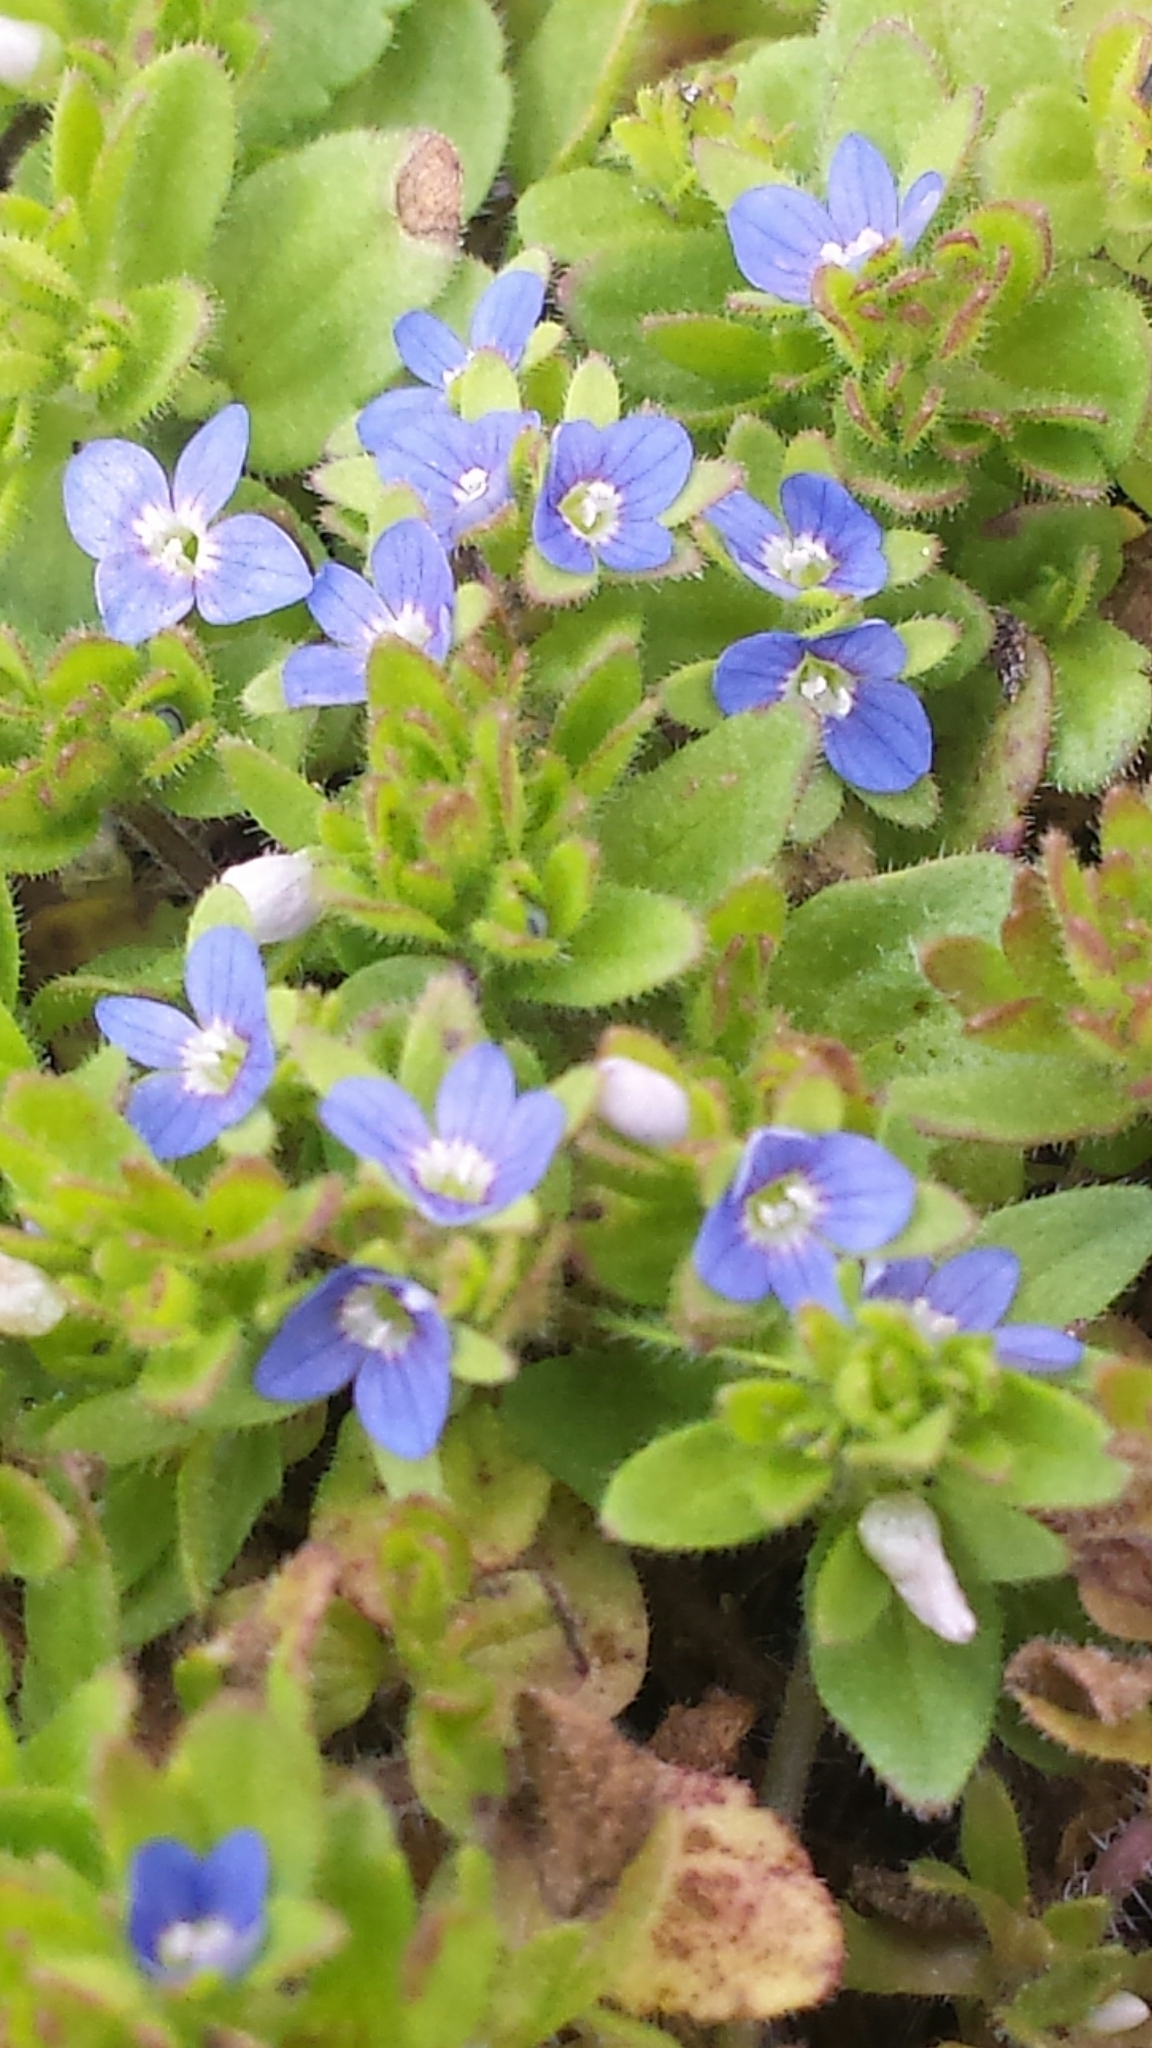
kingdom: Plantae
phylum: Tracheophyta
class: Magnoliopsida
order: Lamiales
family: Plantaginaceae
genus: Veronica
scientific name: Veronica arvensis
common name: Corn speedwell
